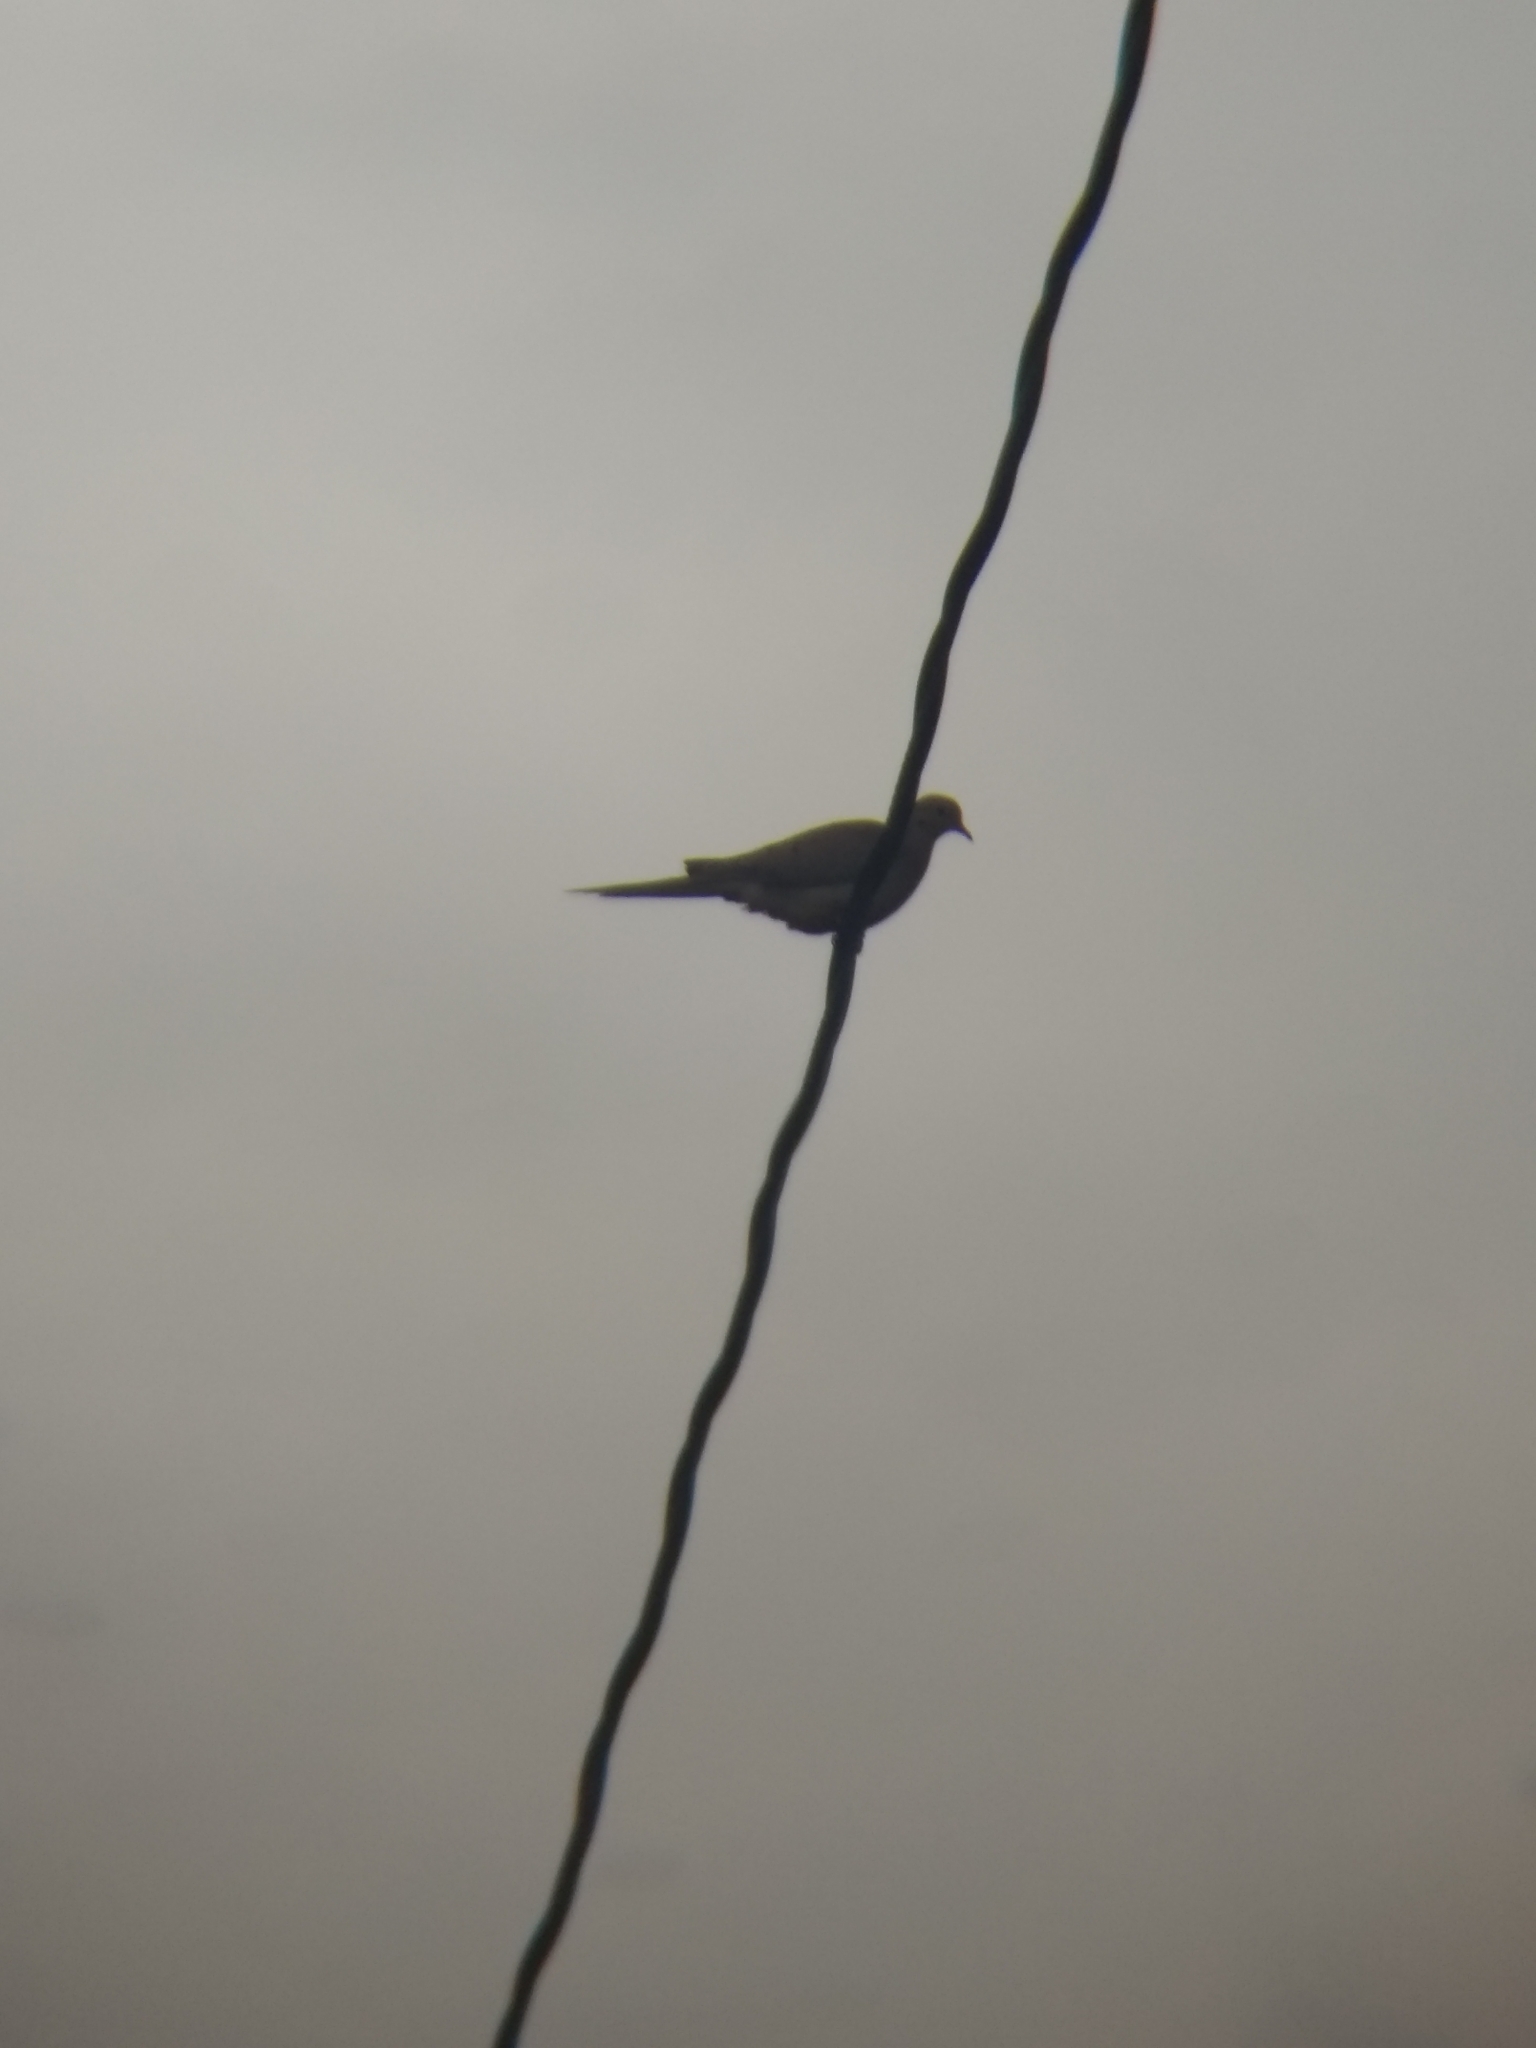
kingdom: Animalia
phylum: Chordata
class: Aves
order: Columbiformes
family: Columbidae
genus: Zenaida
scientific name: Zenaida macroura
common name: Mourning dove
